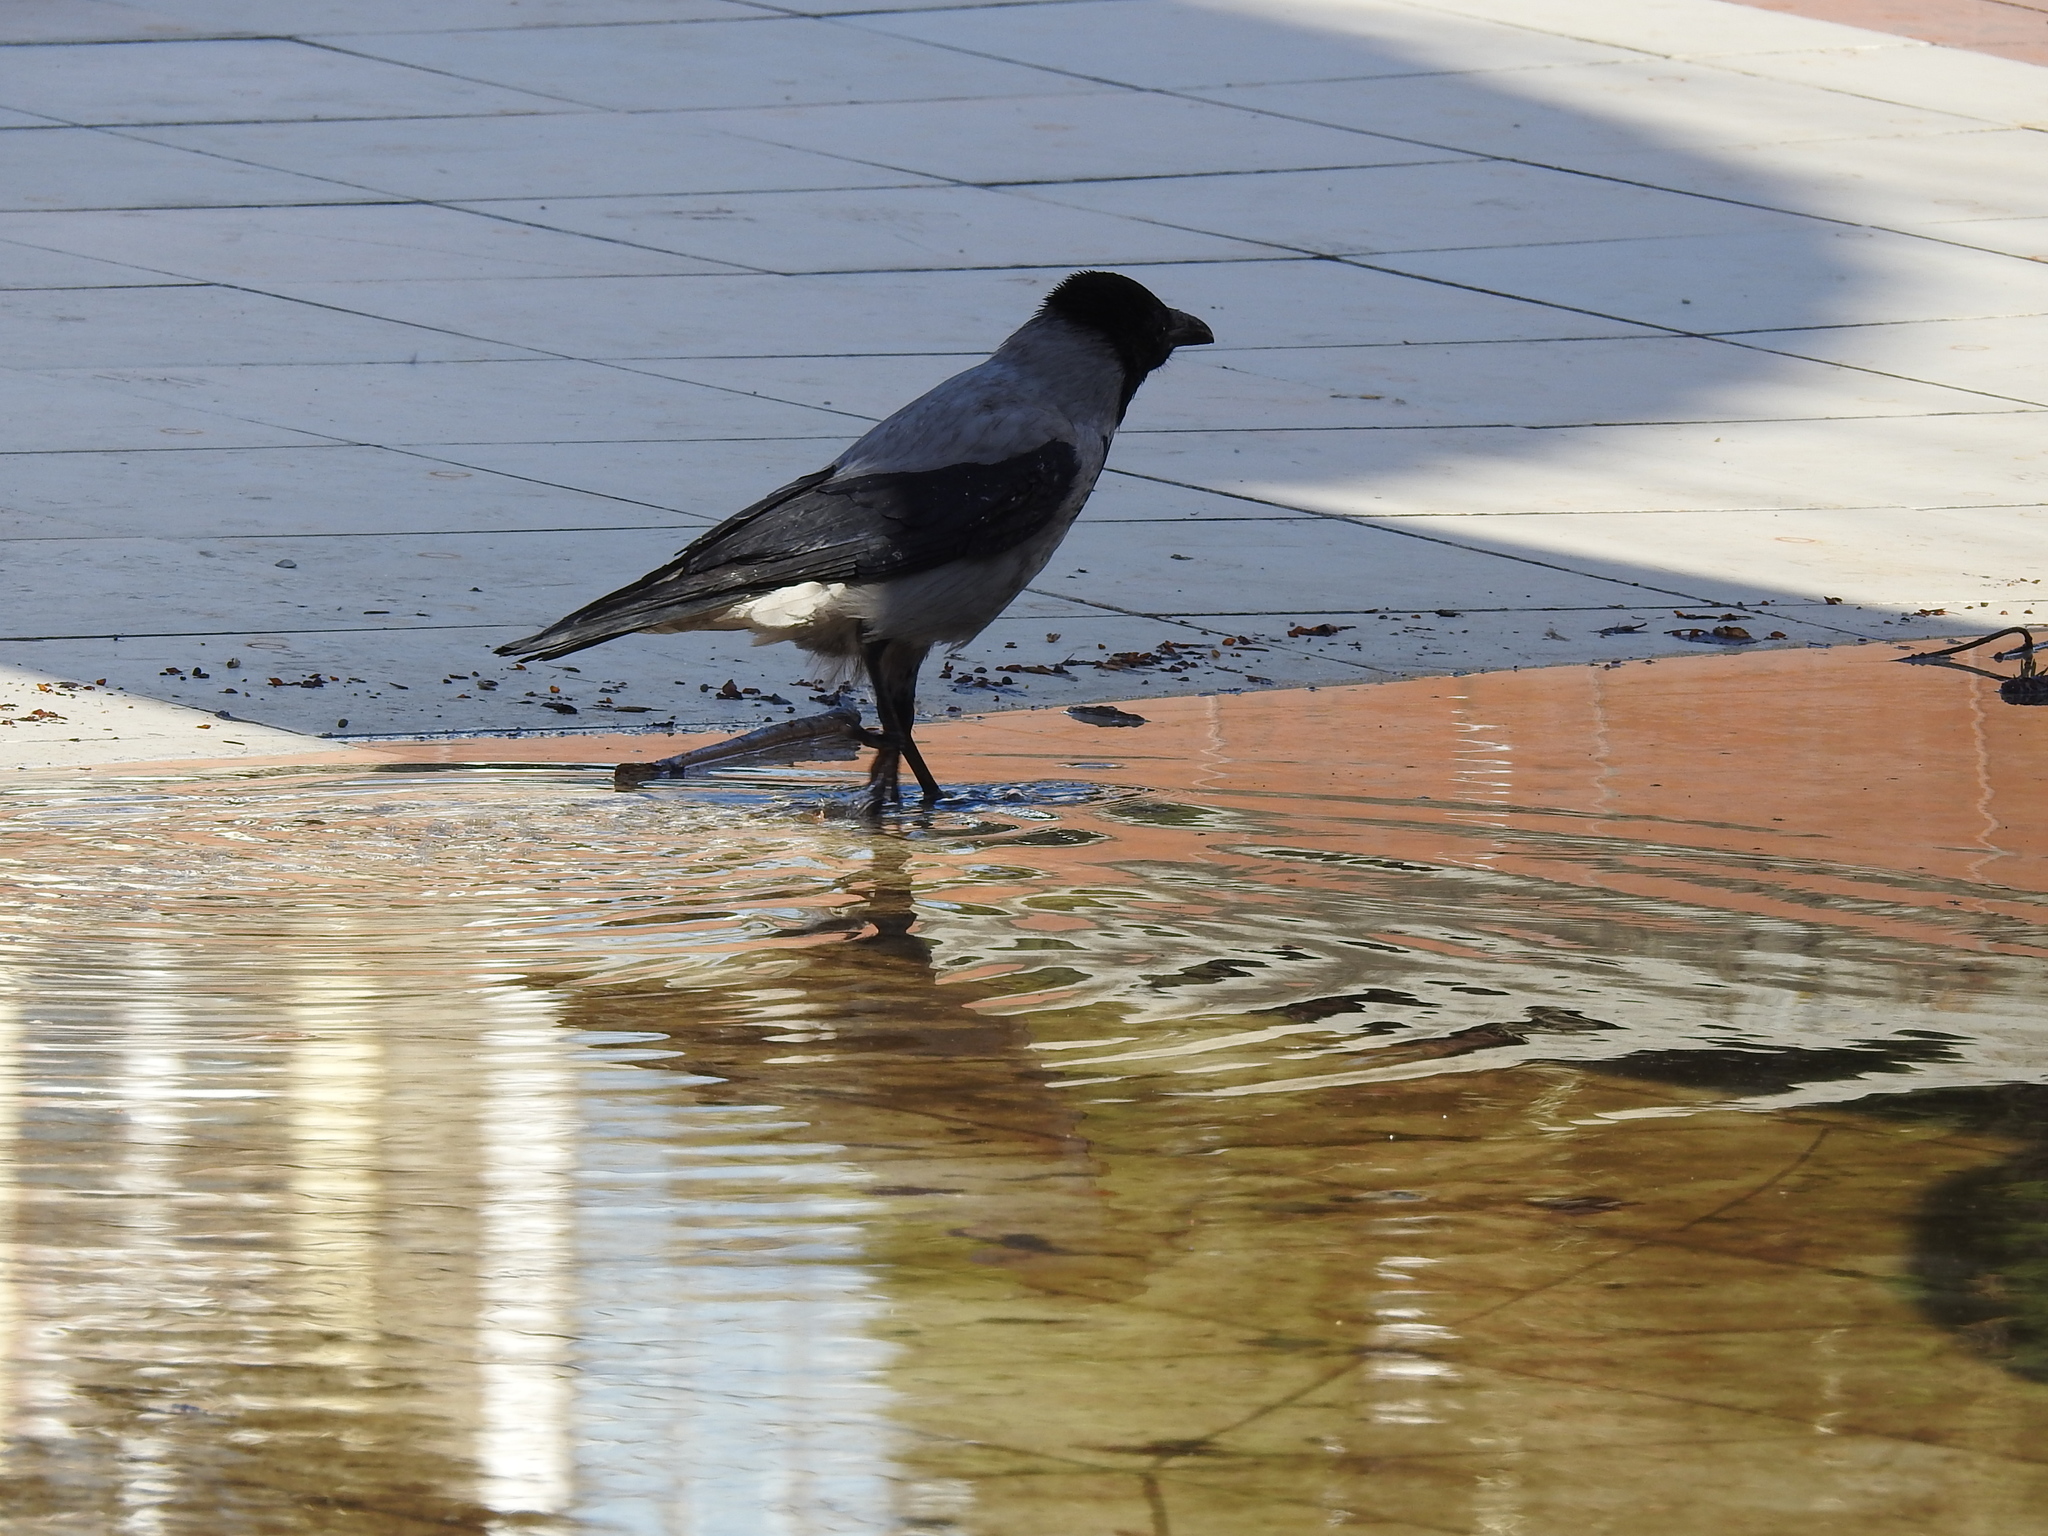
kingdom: Animalia
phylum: Chordata
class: Aves
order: Passeriformes
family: Corvidae
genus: Corvus
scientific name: Corvus cornix
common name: Hooded crow
